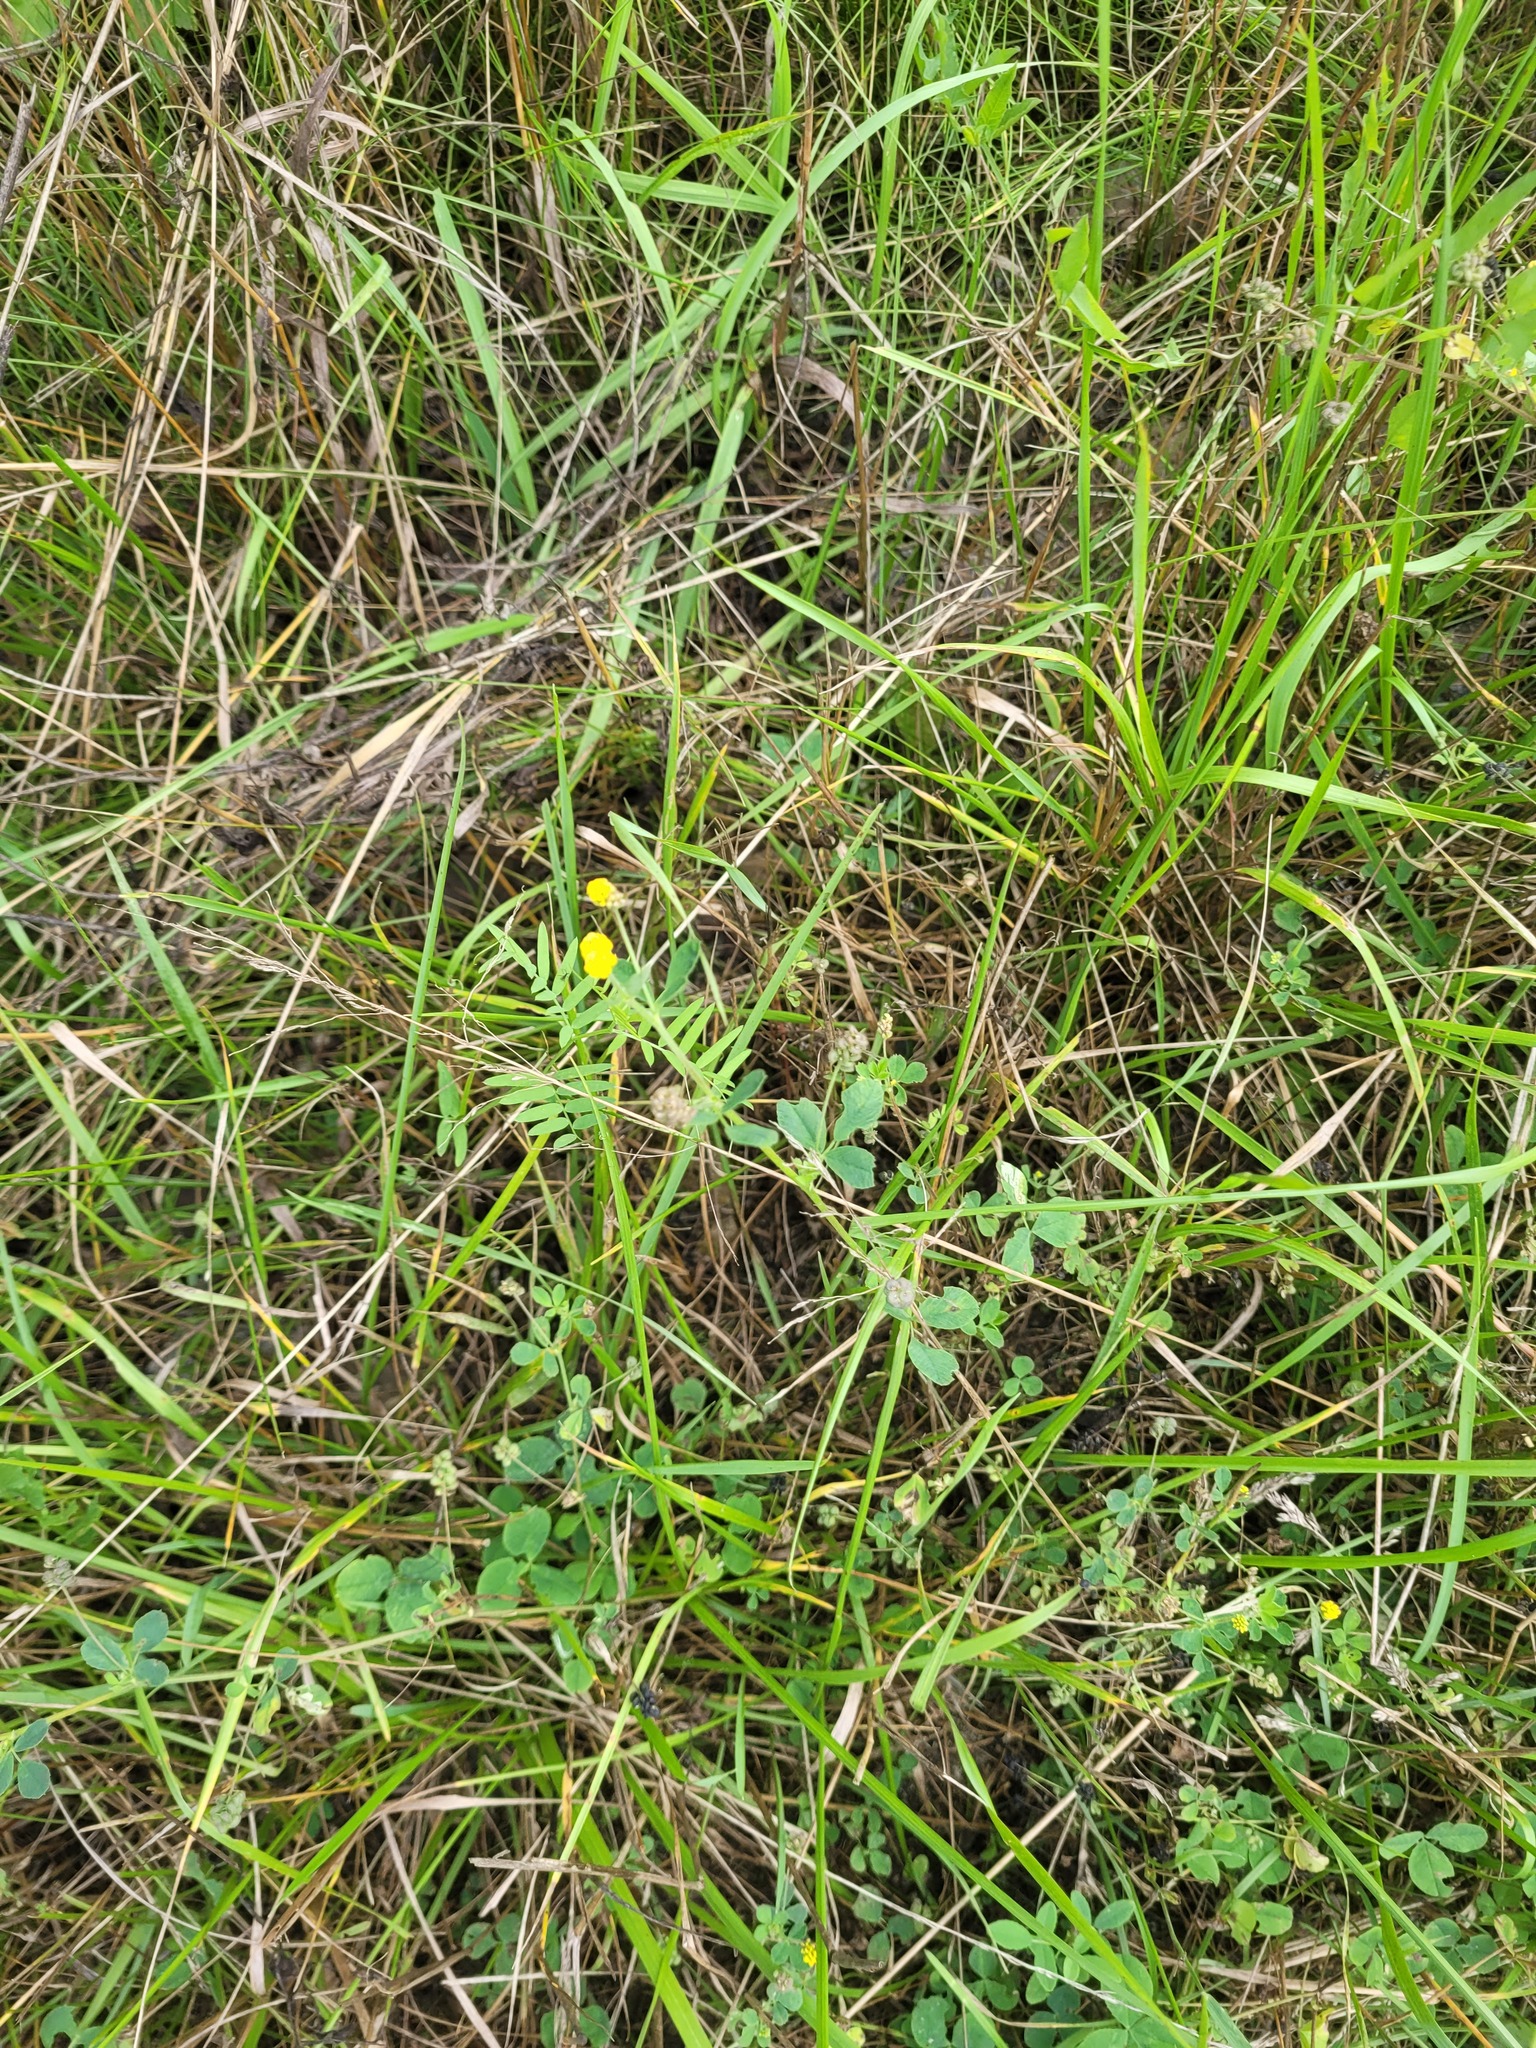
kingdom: Plantae
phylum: Tracheophyta
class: Magnoliopsida
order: Fabales
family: Fabaceae
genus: Medicago
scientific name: Medicago lupulina
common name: Black medick
